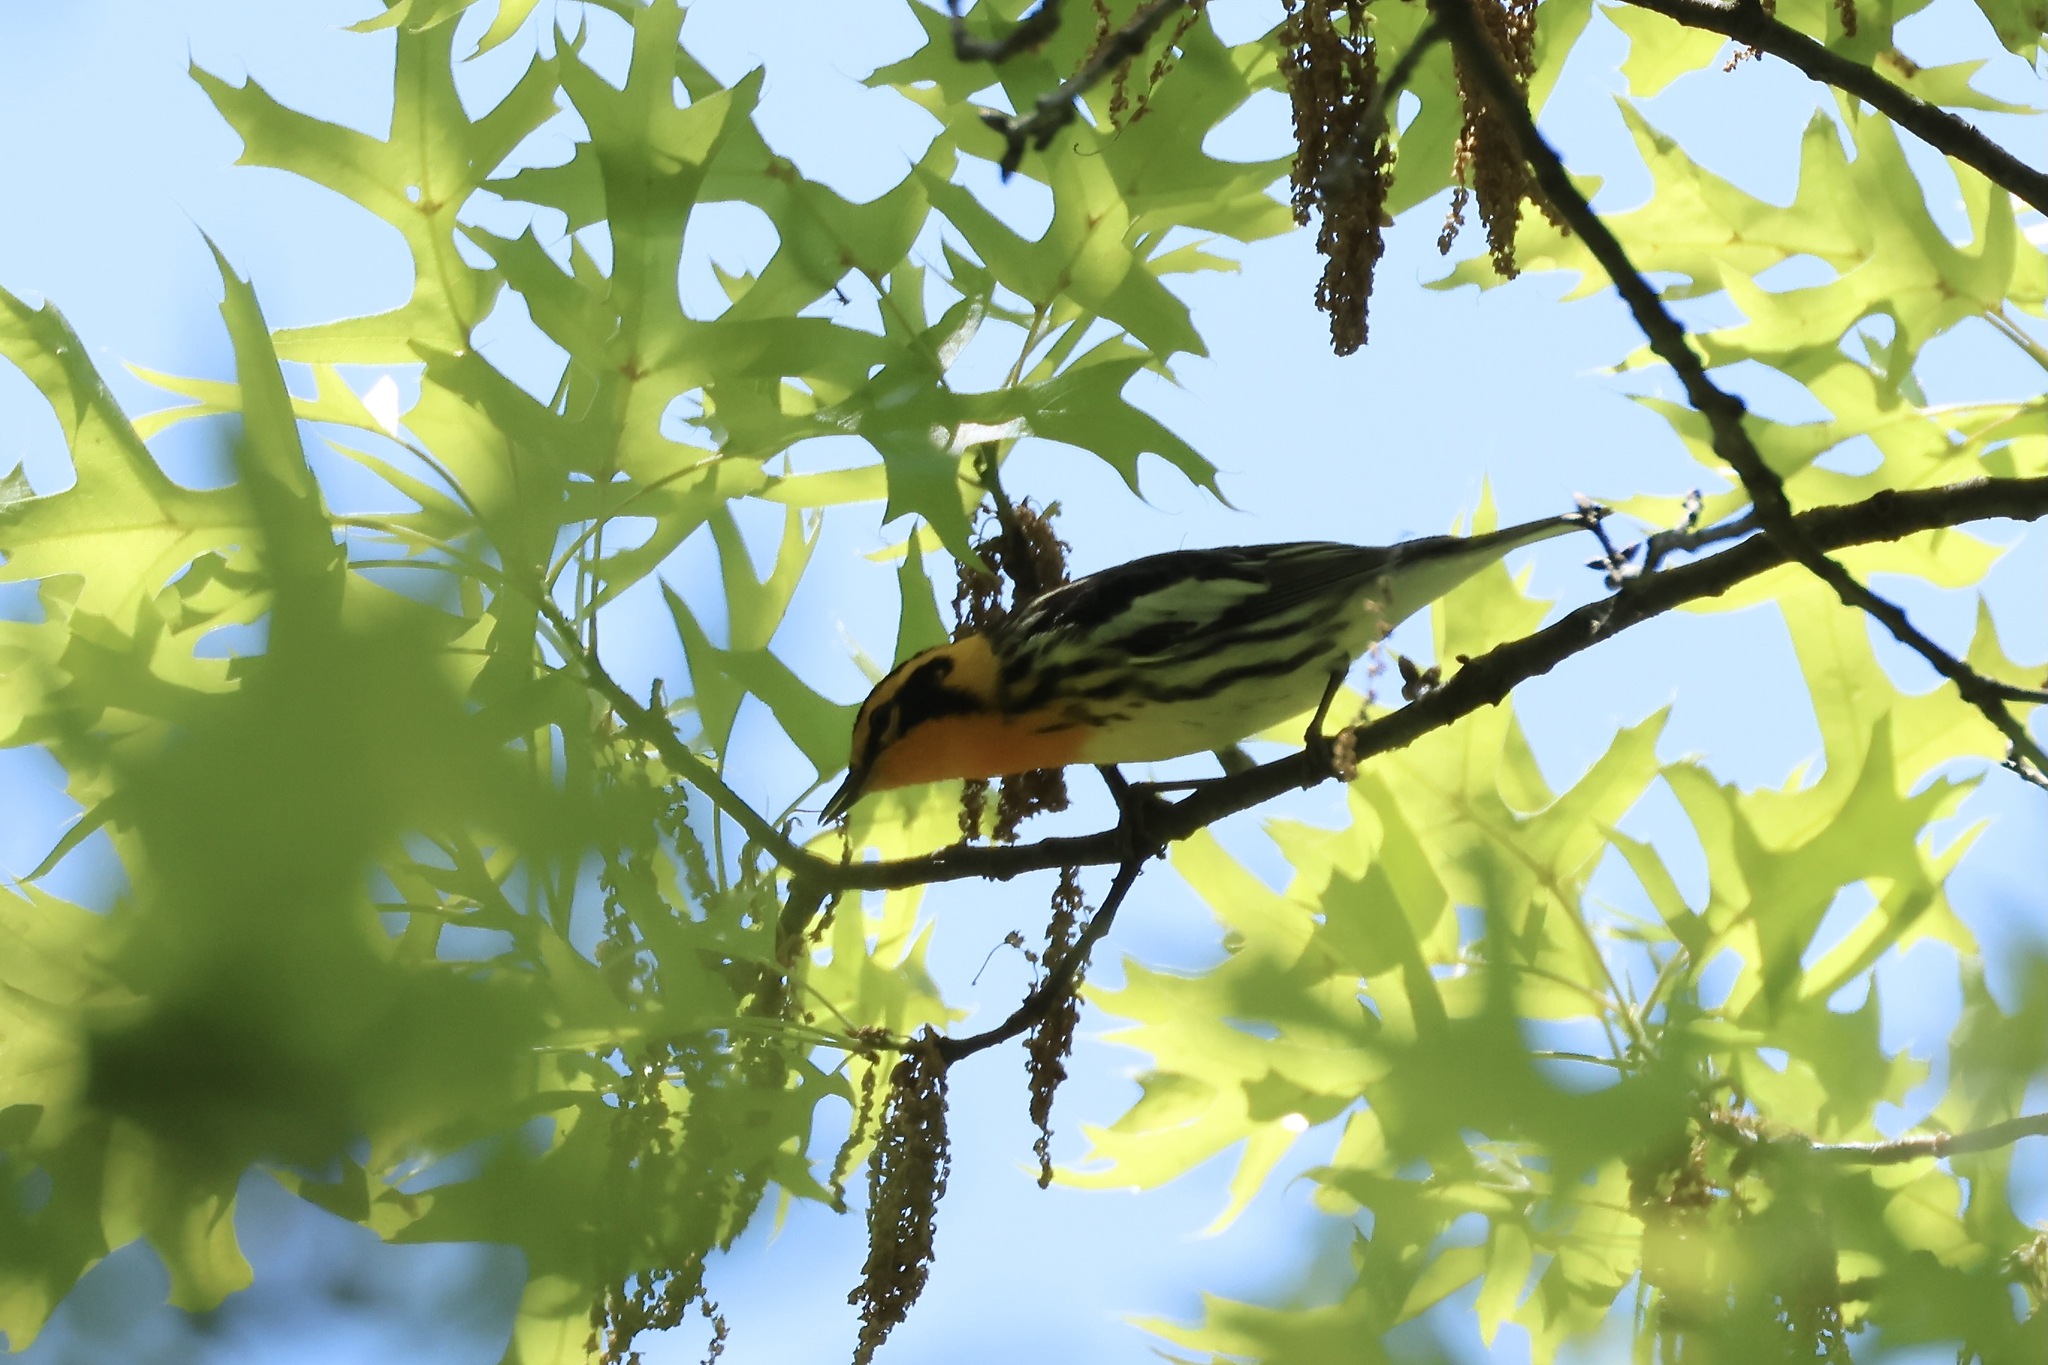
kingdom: Animalia
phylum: Chordata
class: Aves
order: Passeriformes
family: Parulidae
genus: Setophaga
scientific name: Setophaga fusca
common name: Blackburnian warbler
